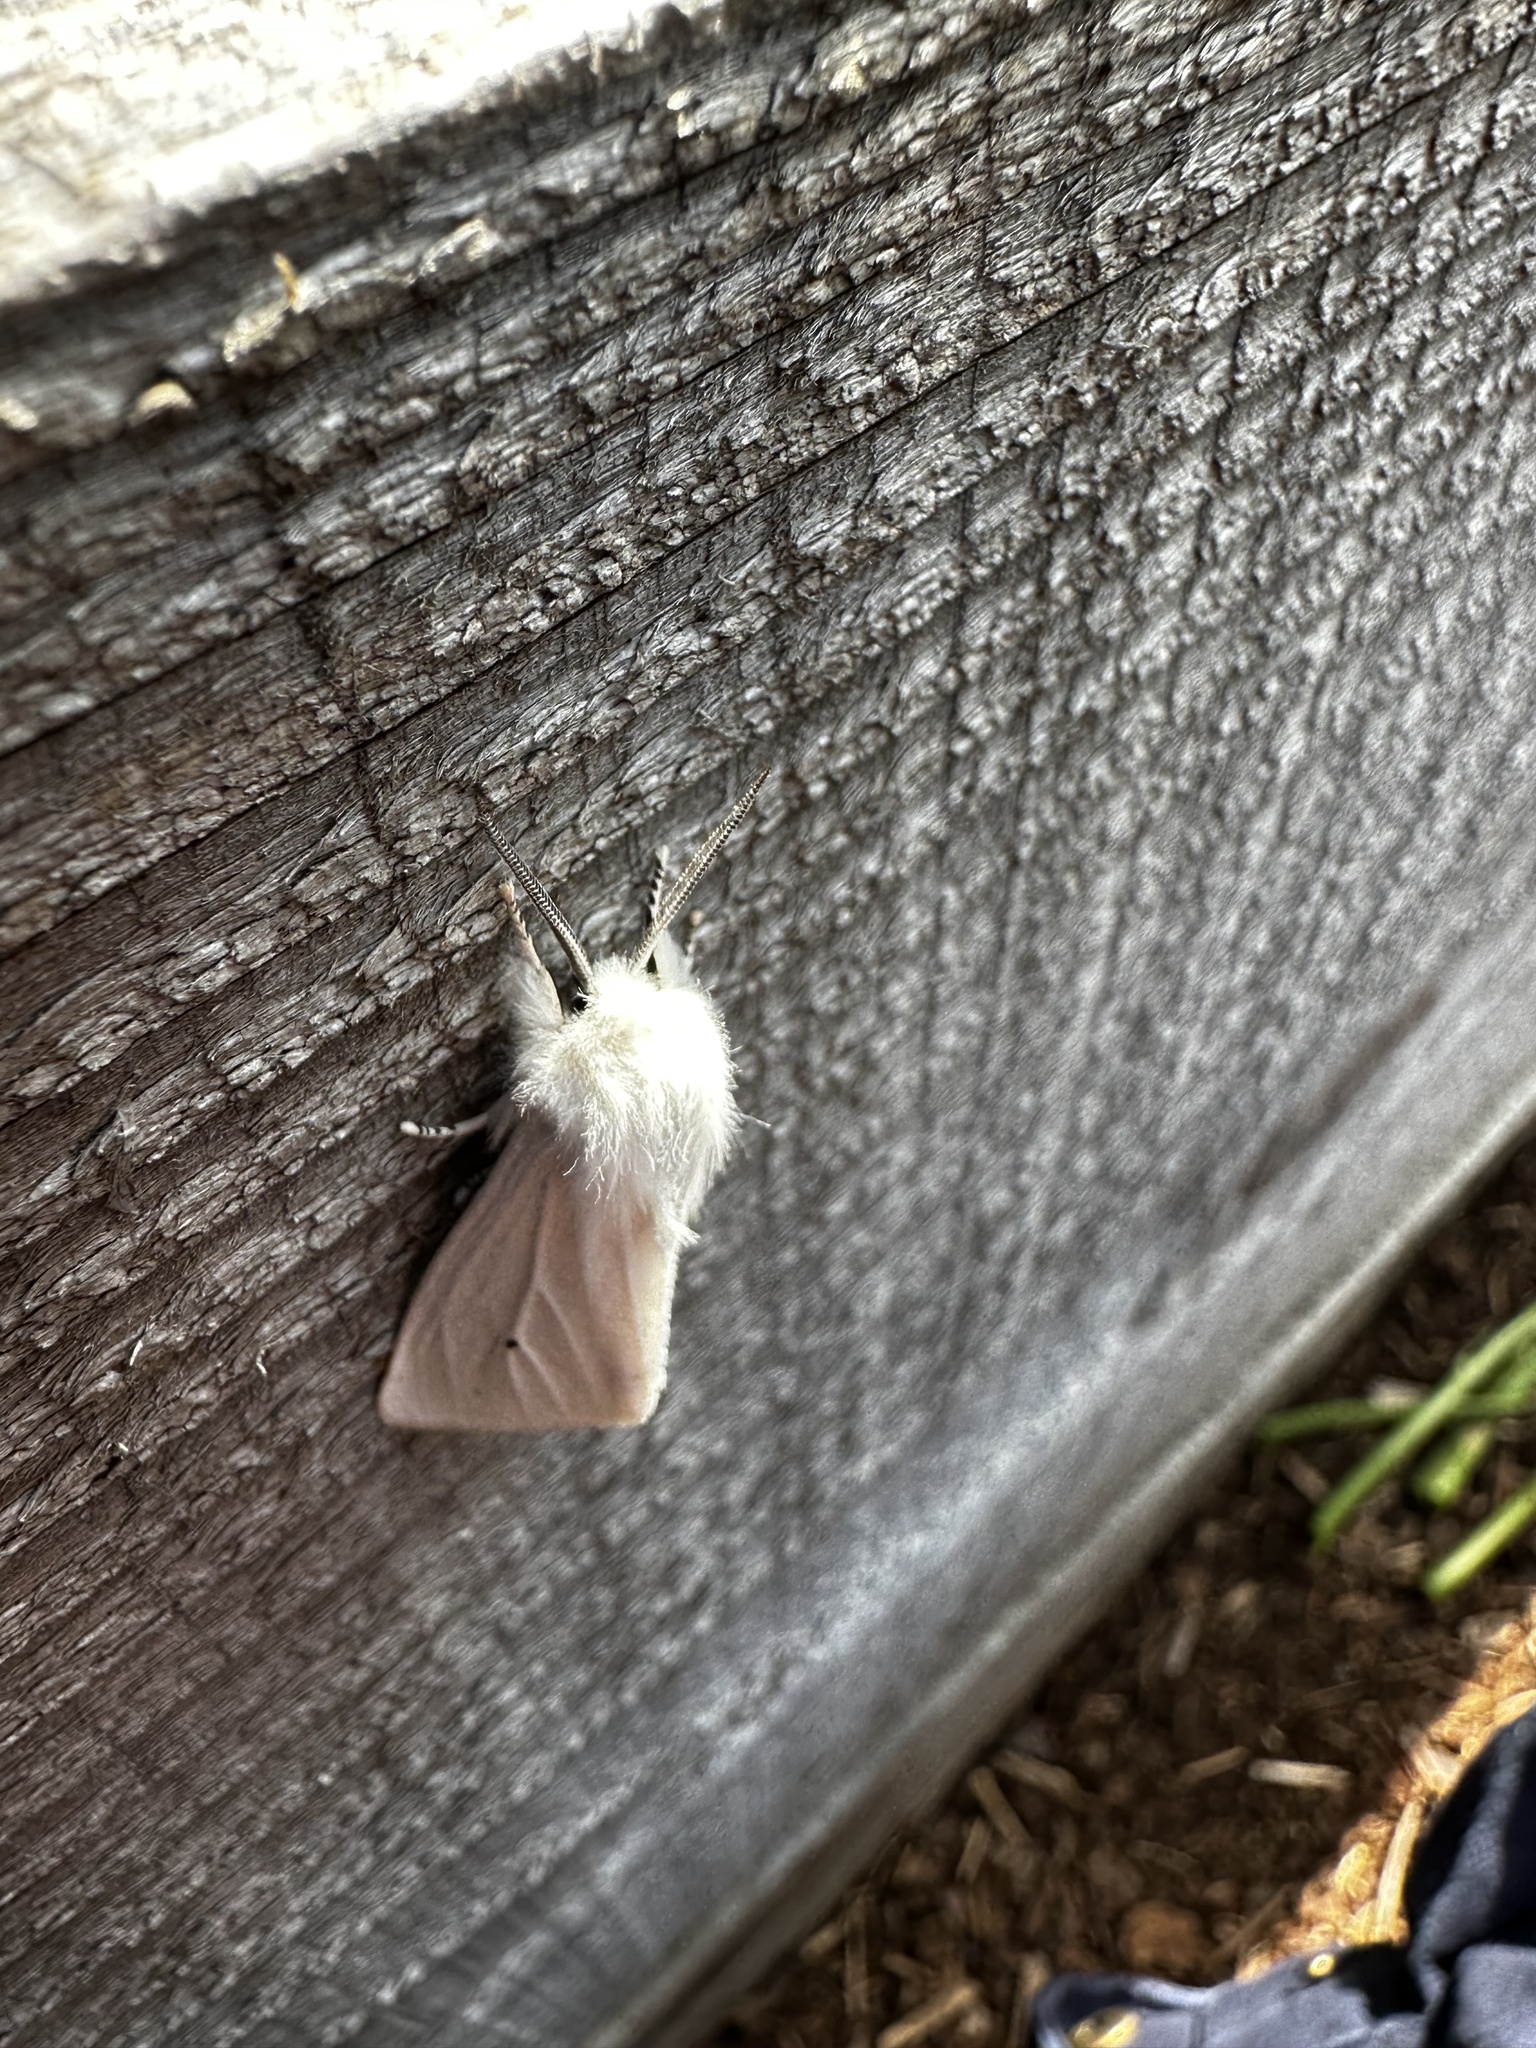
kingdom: Animalia
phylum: Arthropoda
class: Insecta
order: Lepidoptera
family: Erebidae
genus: Spilosoma
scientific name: Spilosoma virginica
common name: Virginia tiger moth
